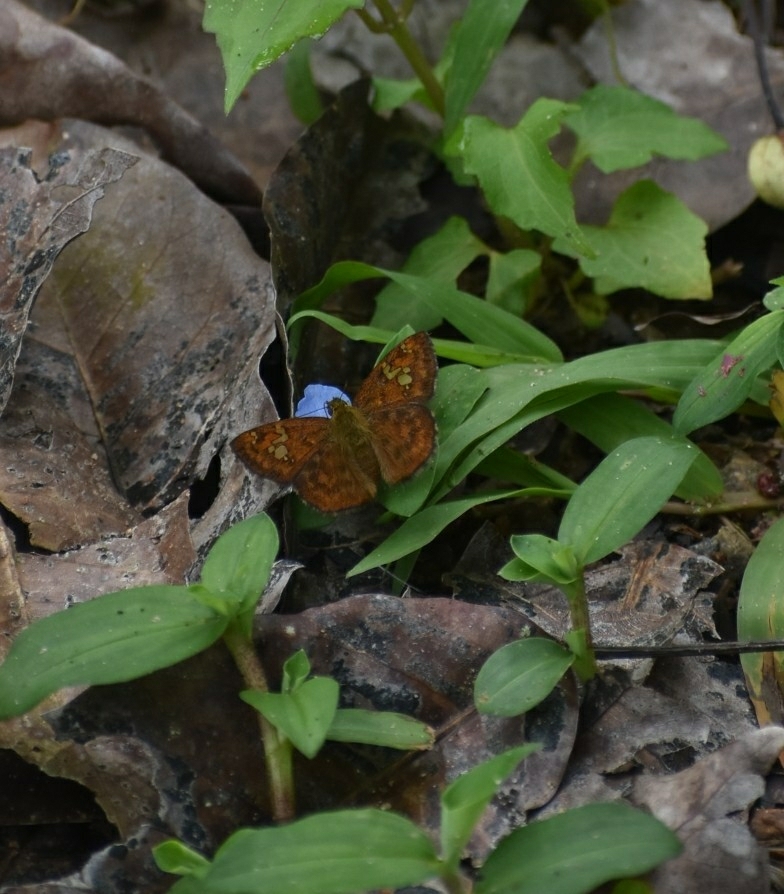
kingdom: Animalia
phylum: Arthropoda
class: Insecta
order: Lepidoptera
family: Hesperiidae
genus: Pseudocoladenia
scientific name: Pseudocoladenia dan
